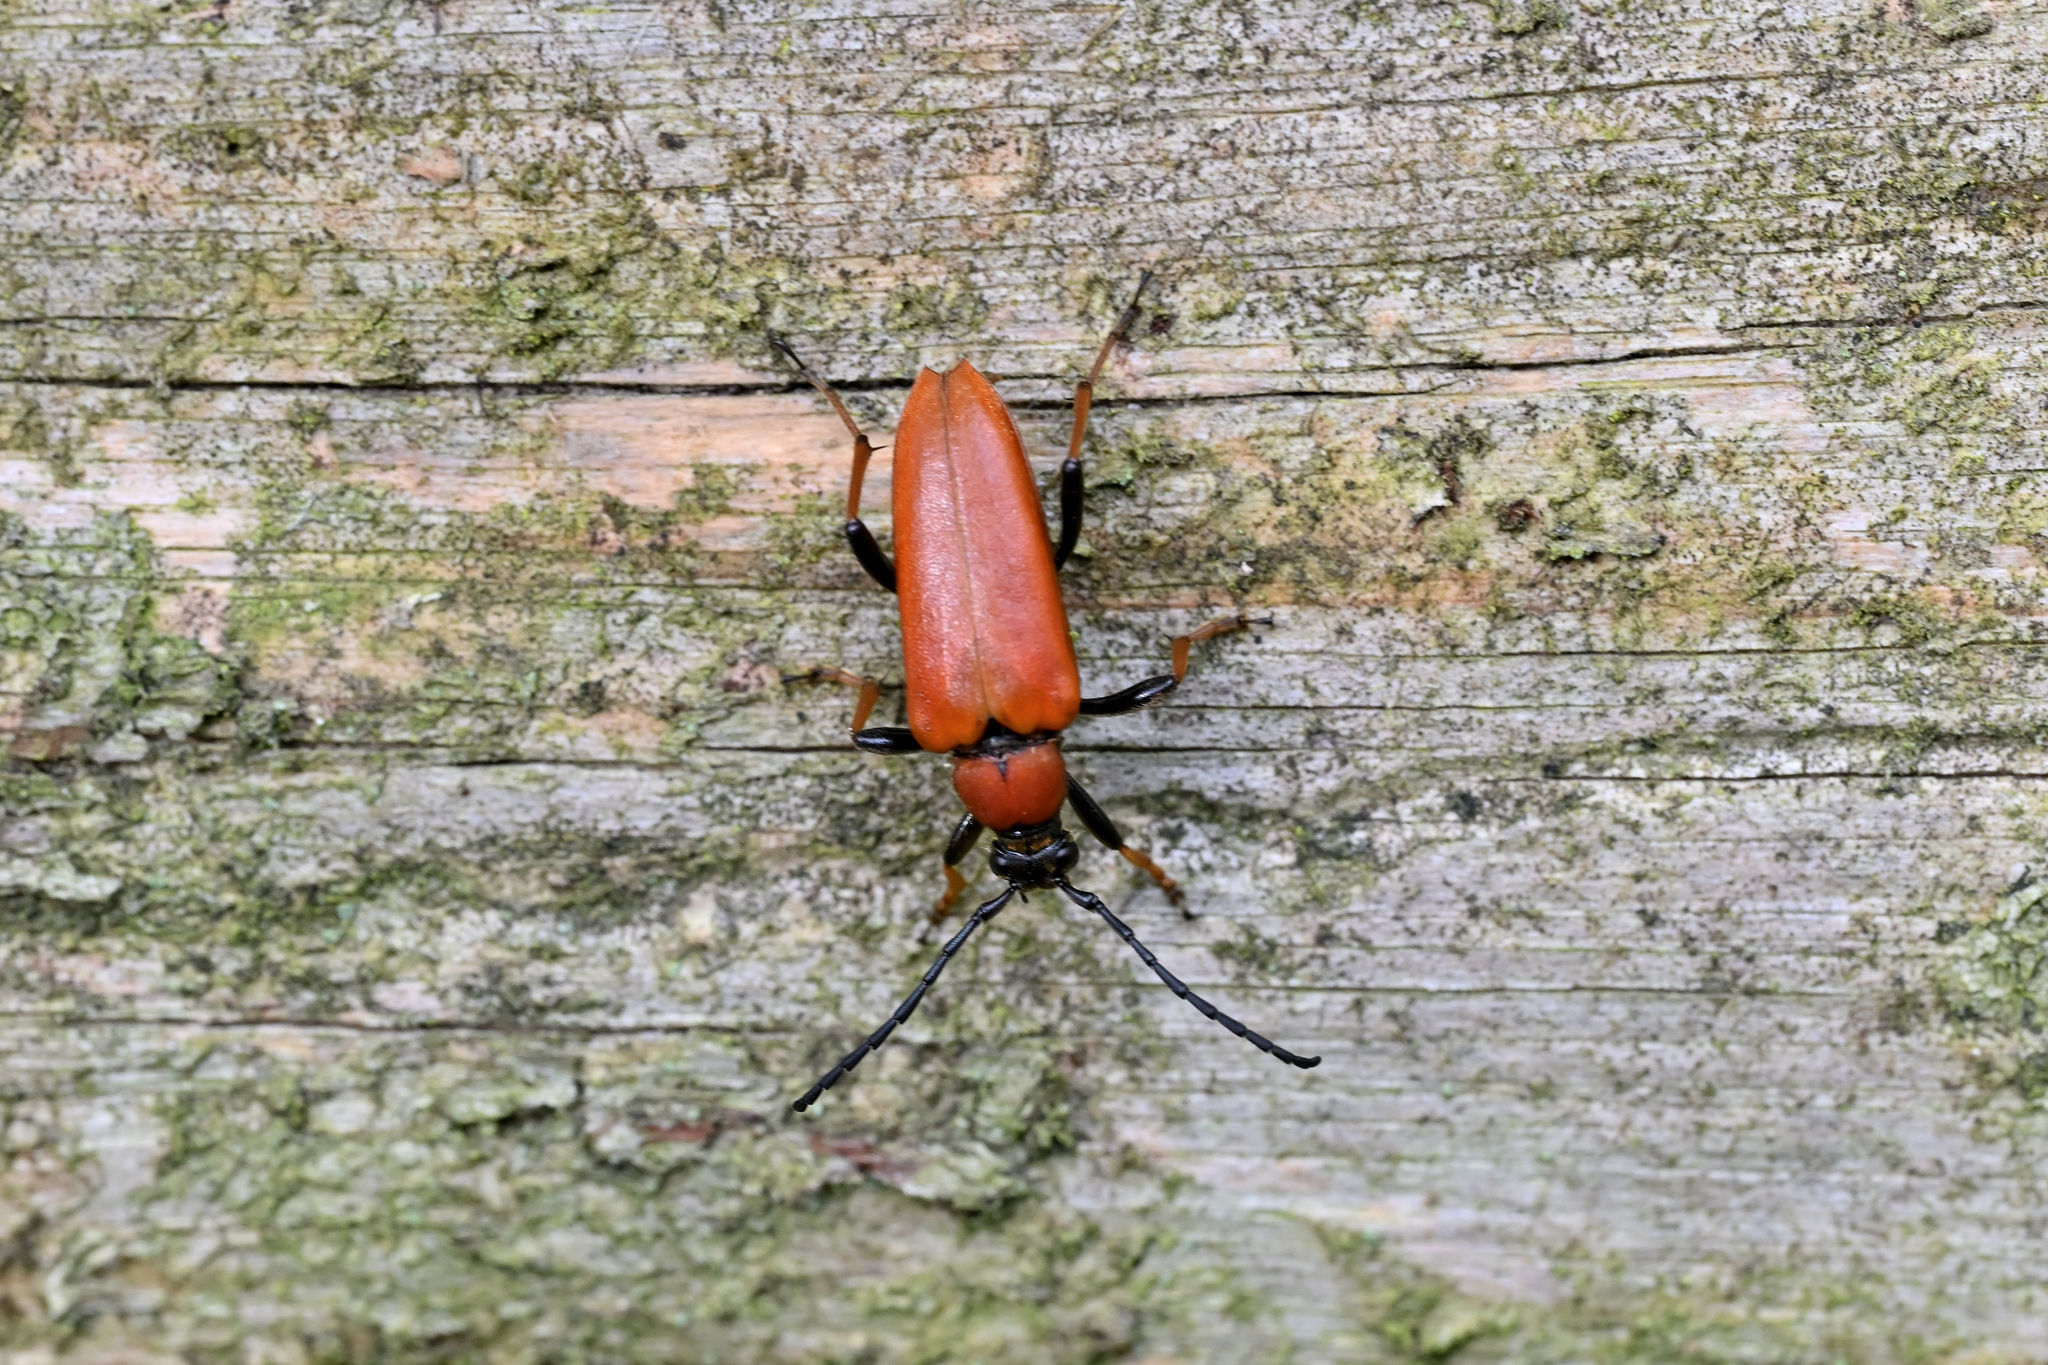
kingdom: Animalia
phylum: Arthropoda
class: Insecta
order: Coleoptera
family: Cerambycidae
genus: Stictoleptura
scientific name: Stictoleptura rubra
